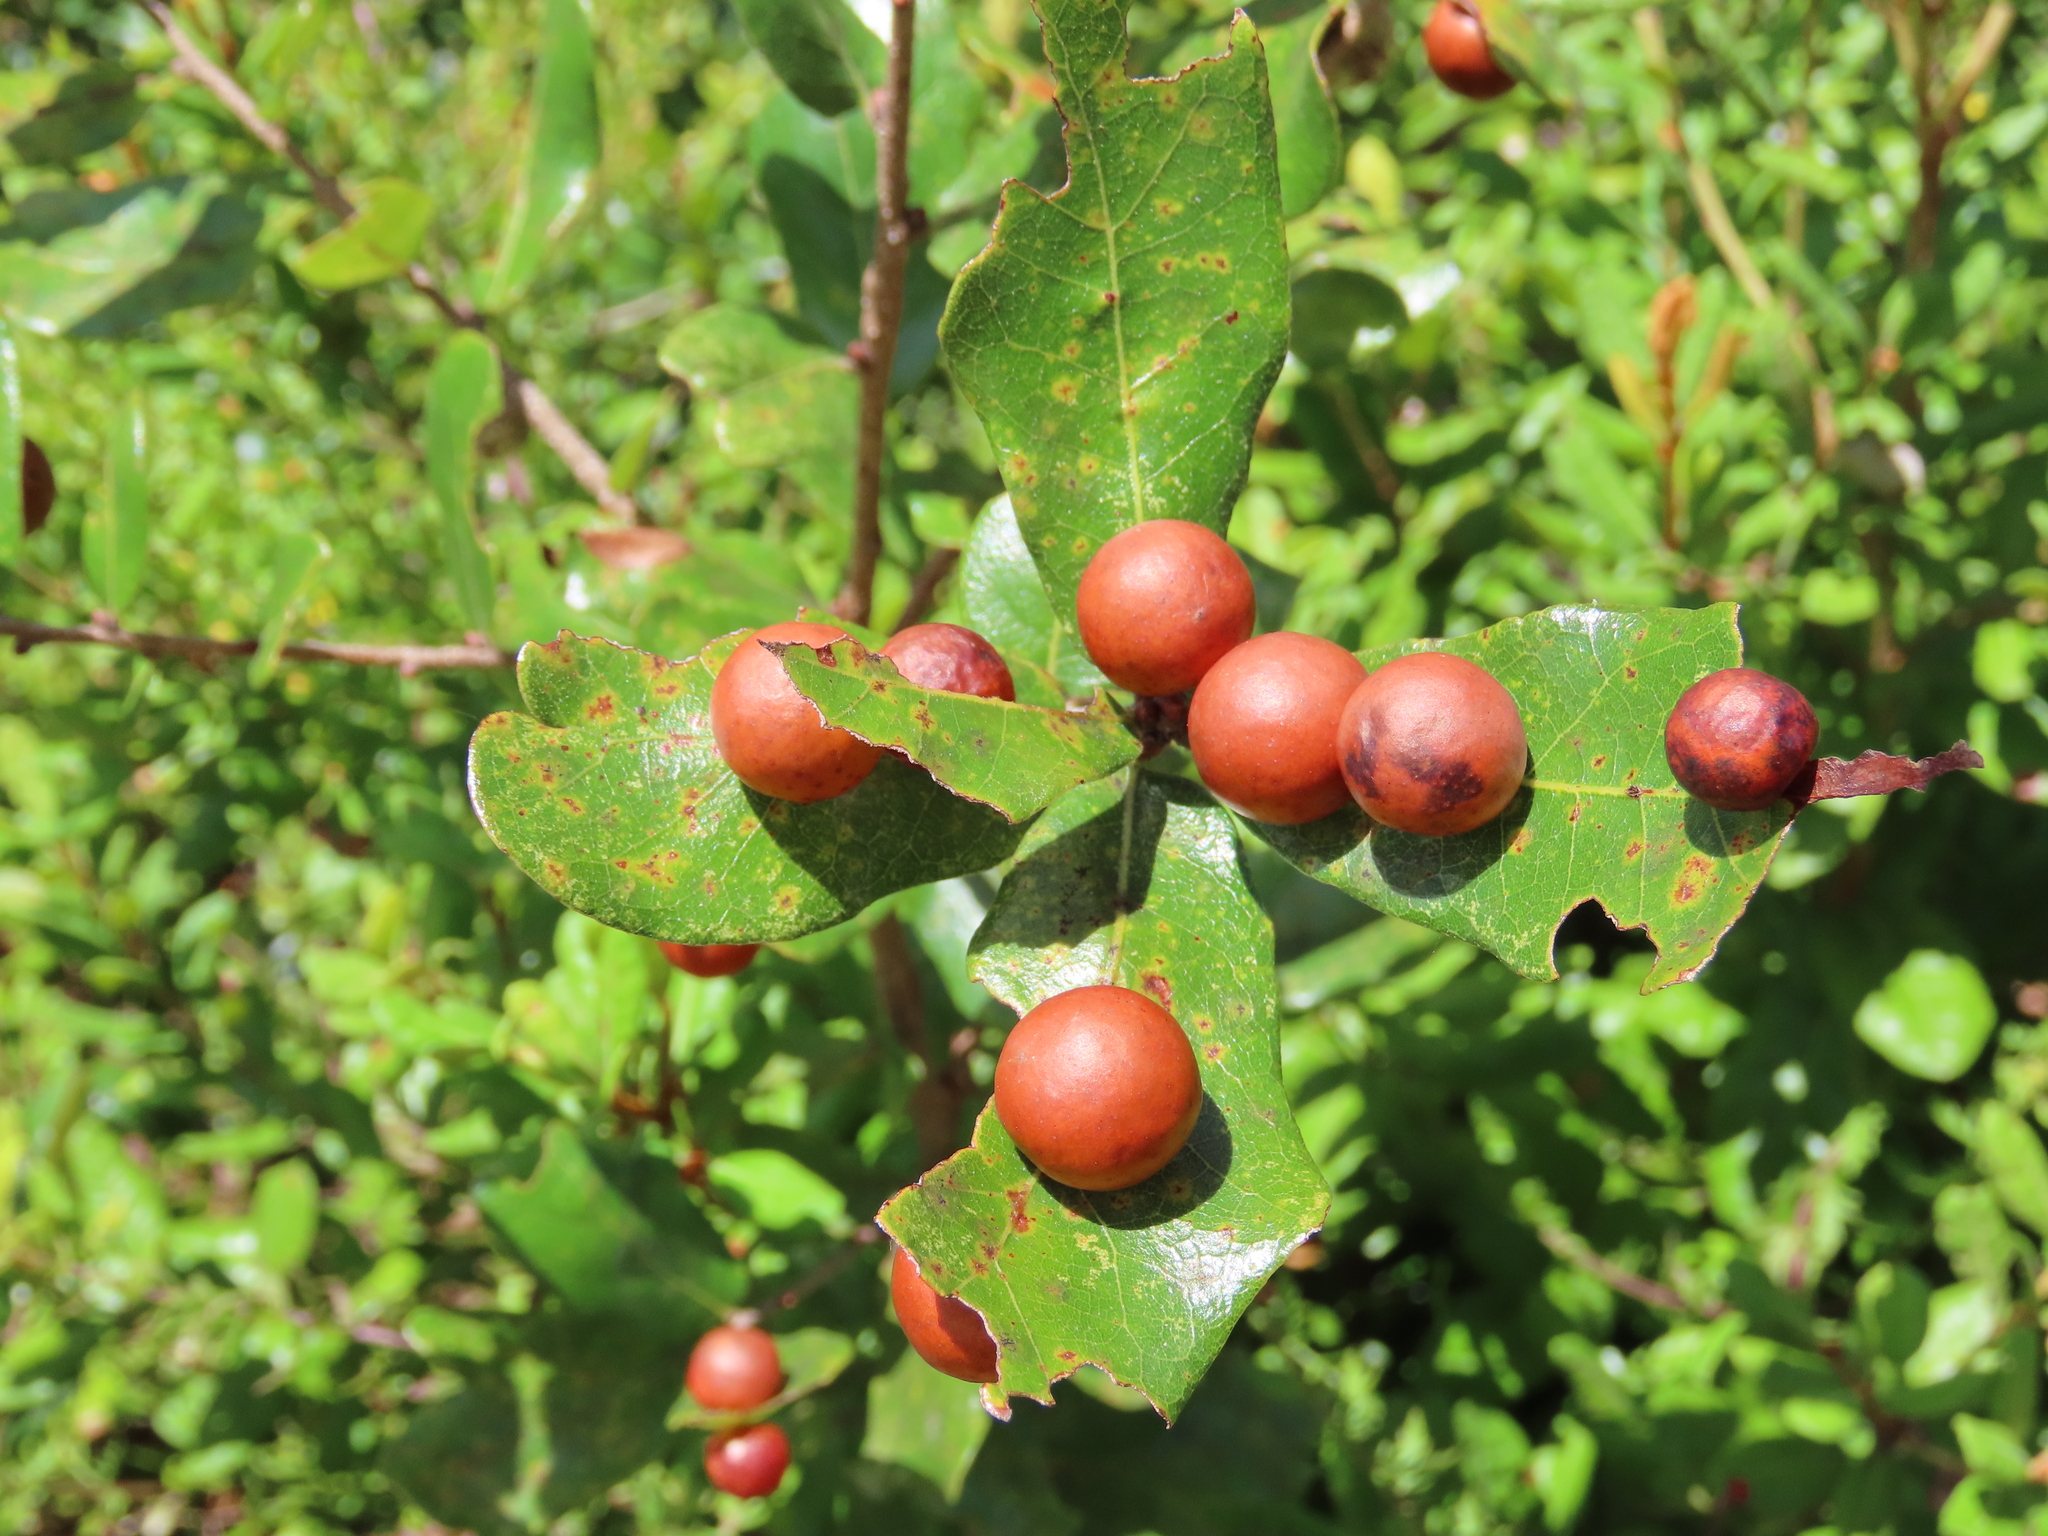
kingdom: Animalia
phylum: Arthropoda
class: Insecta
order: Hymenoptera
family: Cynipidae
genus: Trigonaspis
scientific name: Trigonaspis
